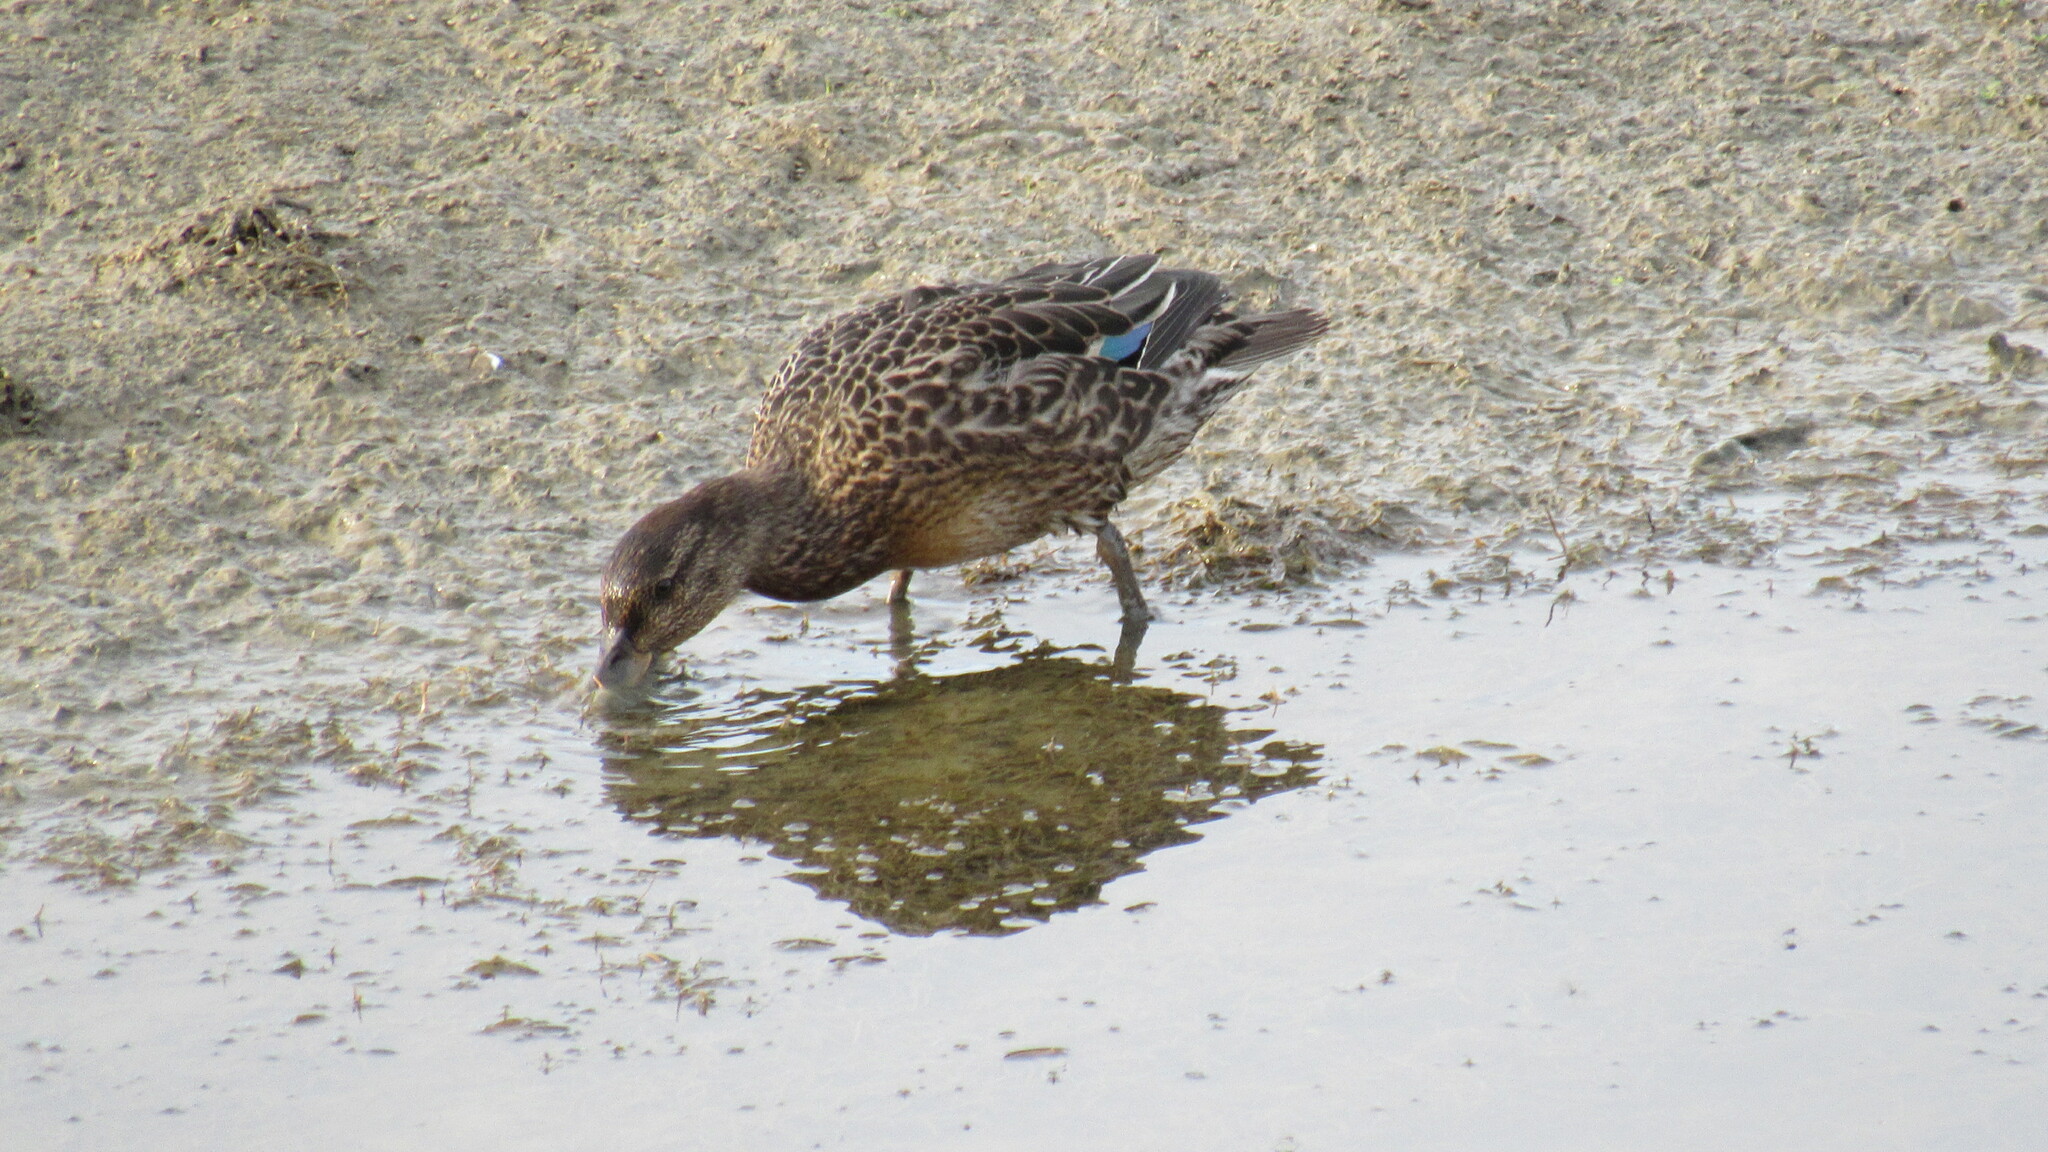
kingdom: Animalia
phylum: Chordata
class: Aves
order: Anseriformes
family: Anatidae
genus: Anas
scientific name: Anas crecca
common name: Eurasian teal
